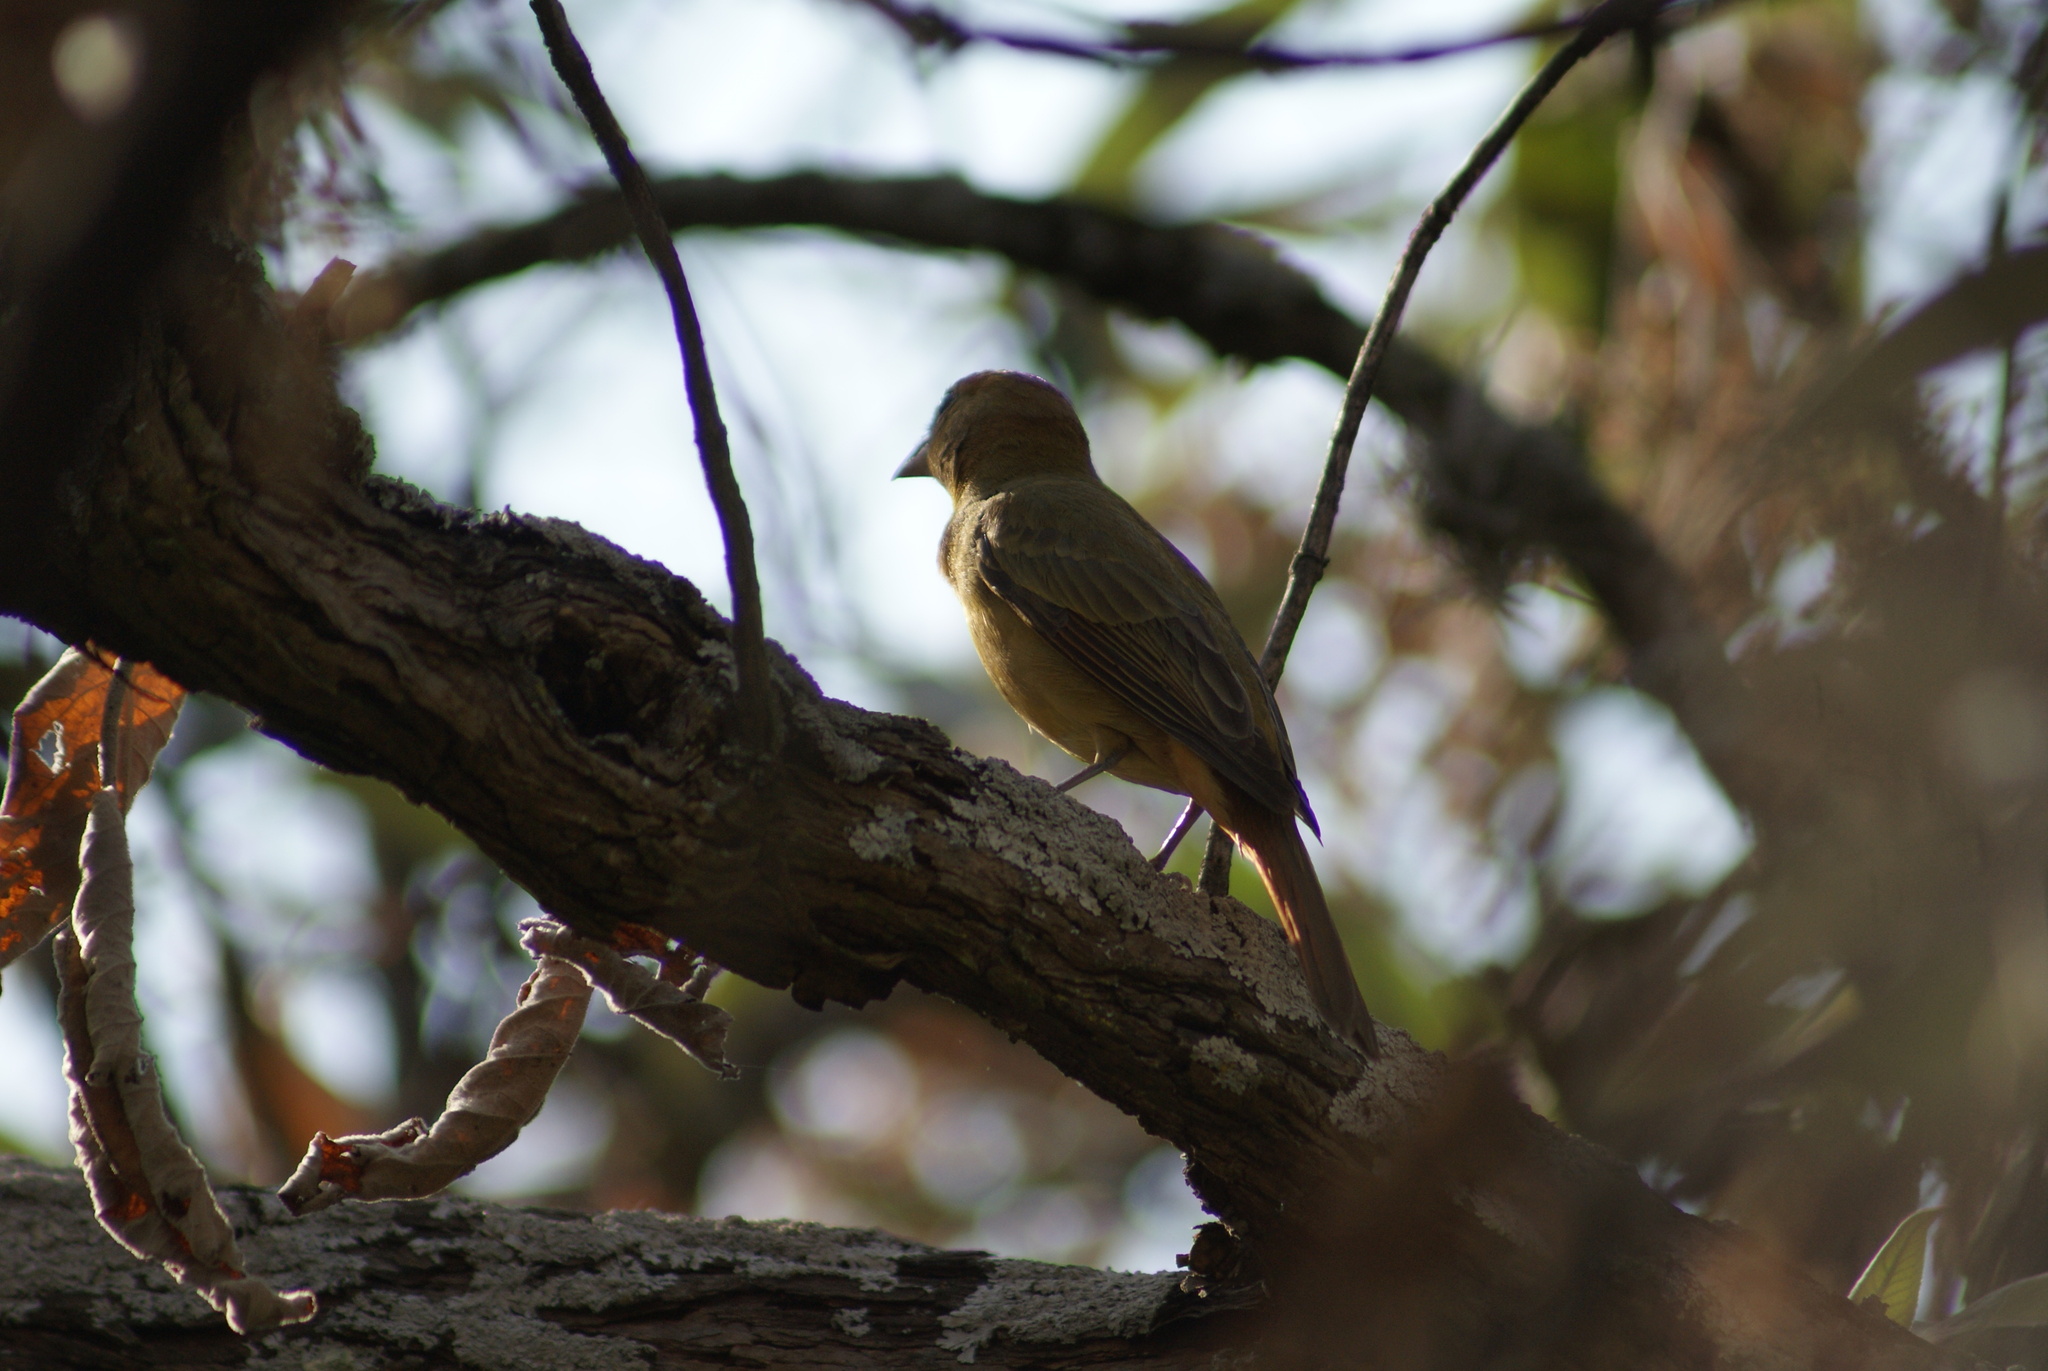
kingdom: Animalia
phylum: Chordata
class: Aves
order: Passeriformes
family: Cardinalidae
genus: Piranga
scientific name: Piranga rubra
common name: Summer tanager
